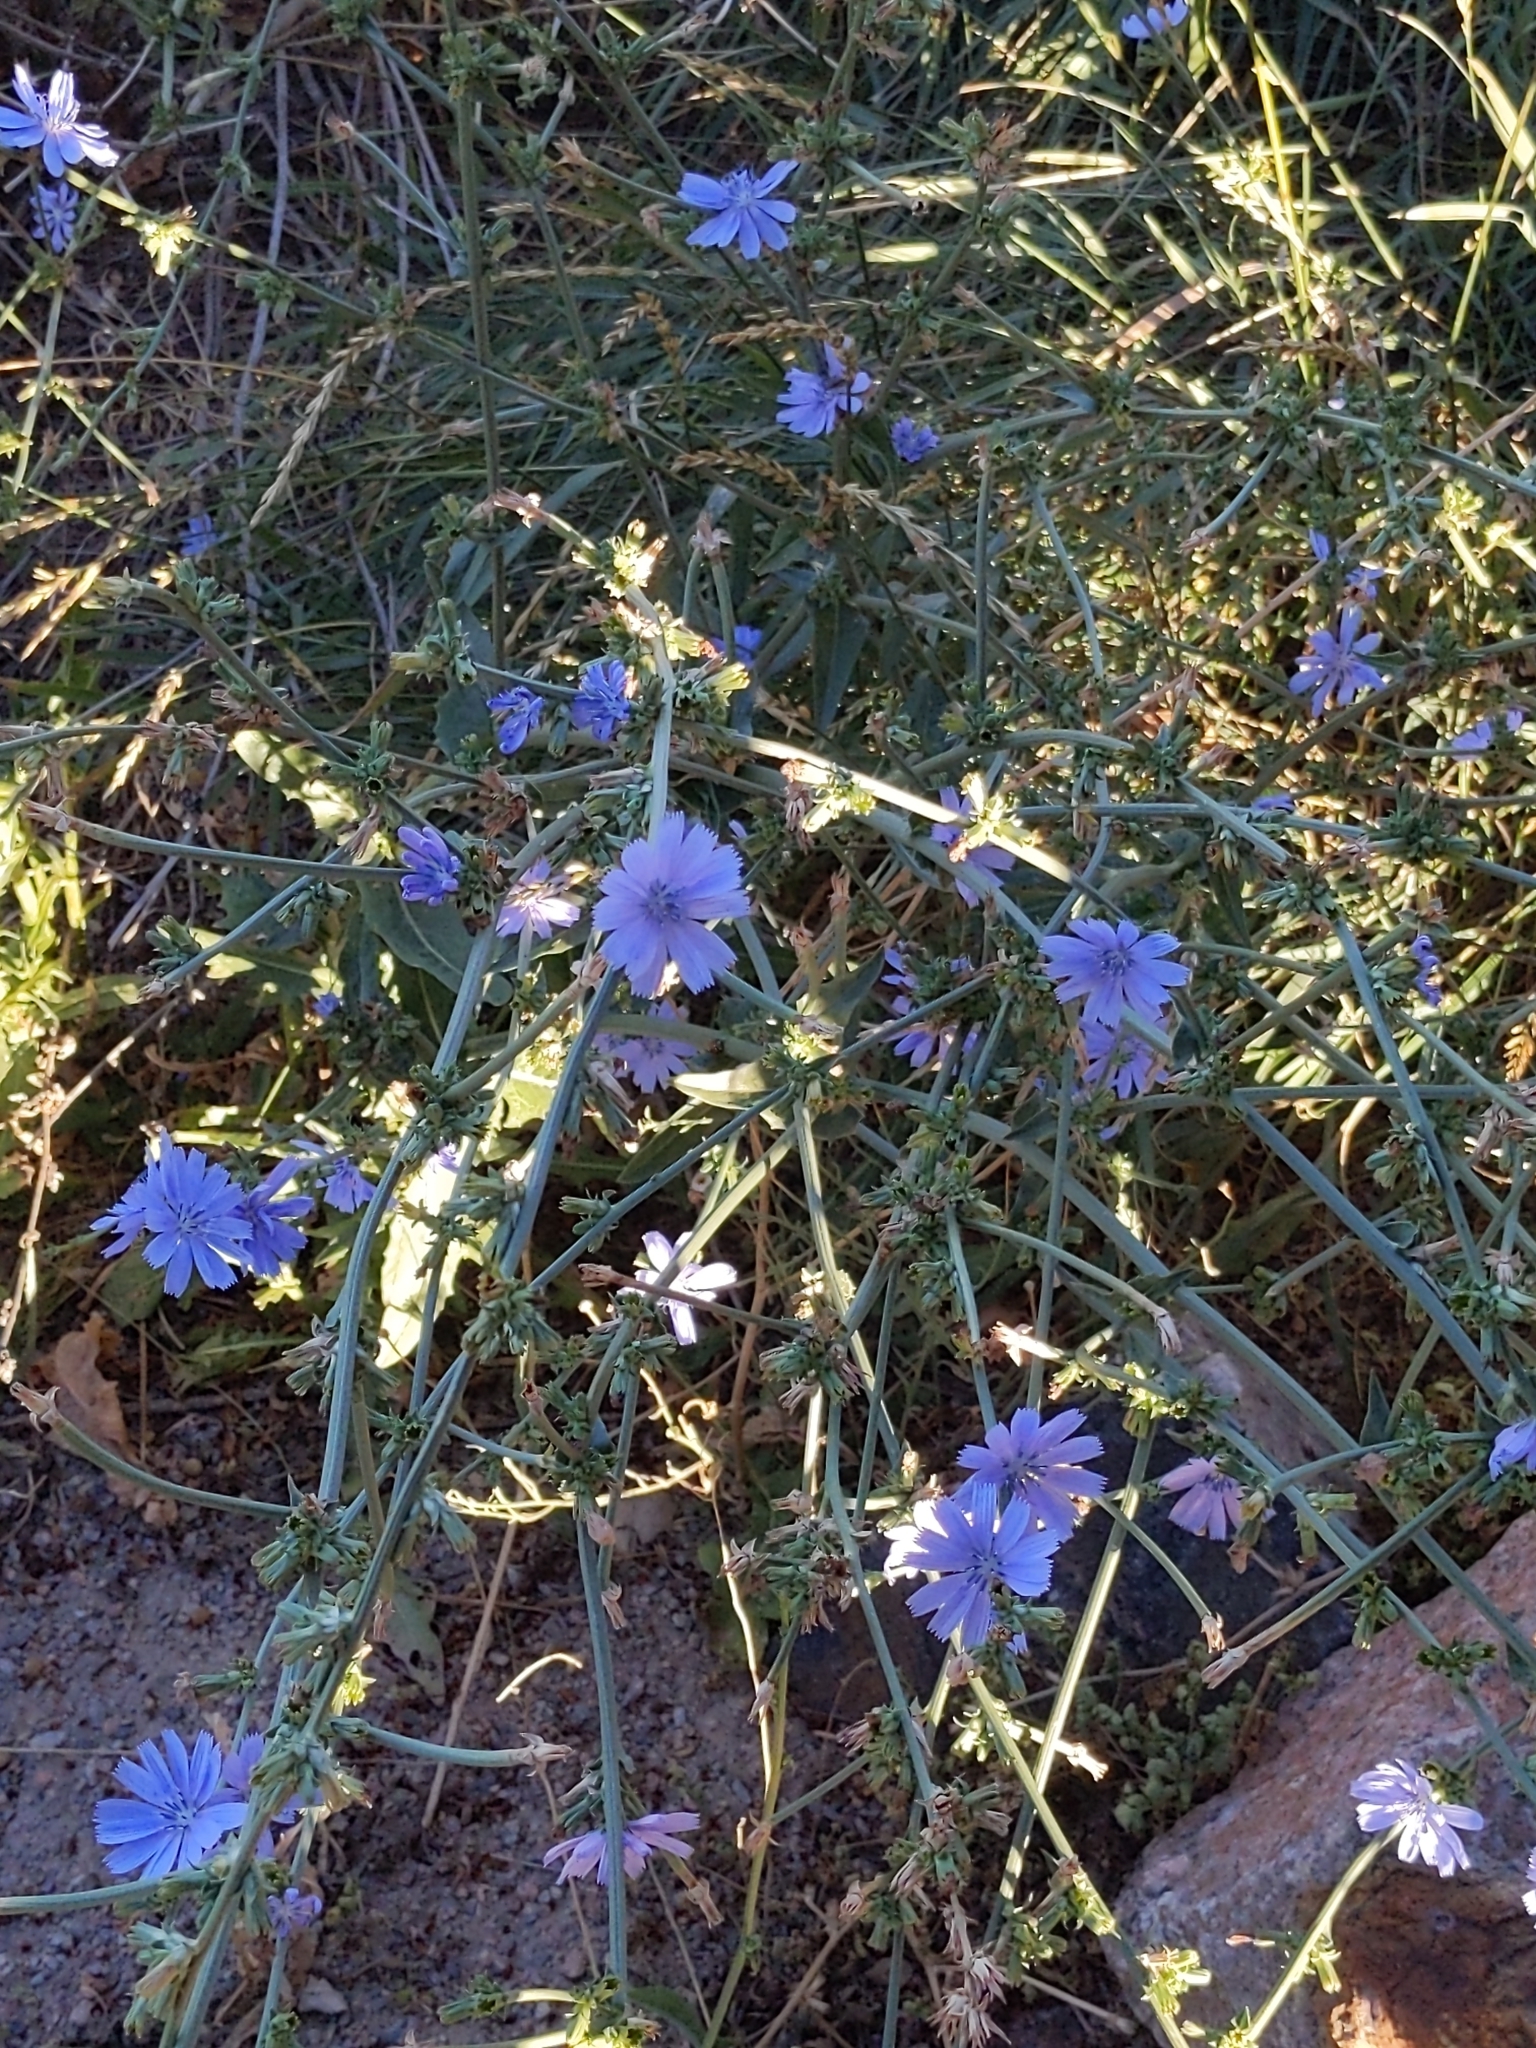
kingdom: Plantae
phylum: Tracheophyta
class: Magnoliopsida
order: Asterales
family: Asteraceae
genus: Cichorium
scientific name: Cichorium intybus
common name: Chicory
